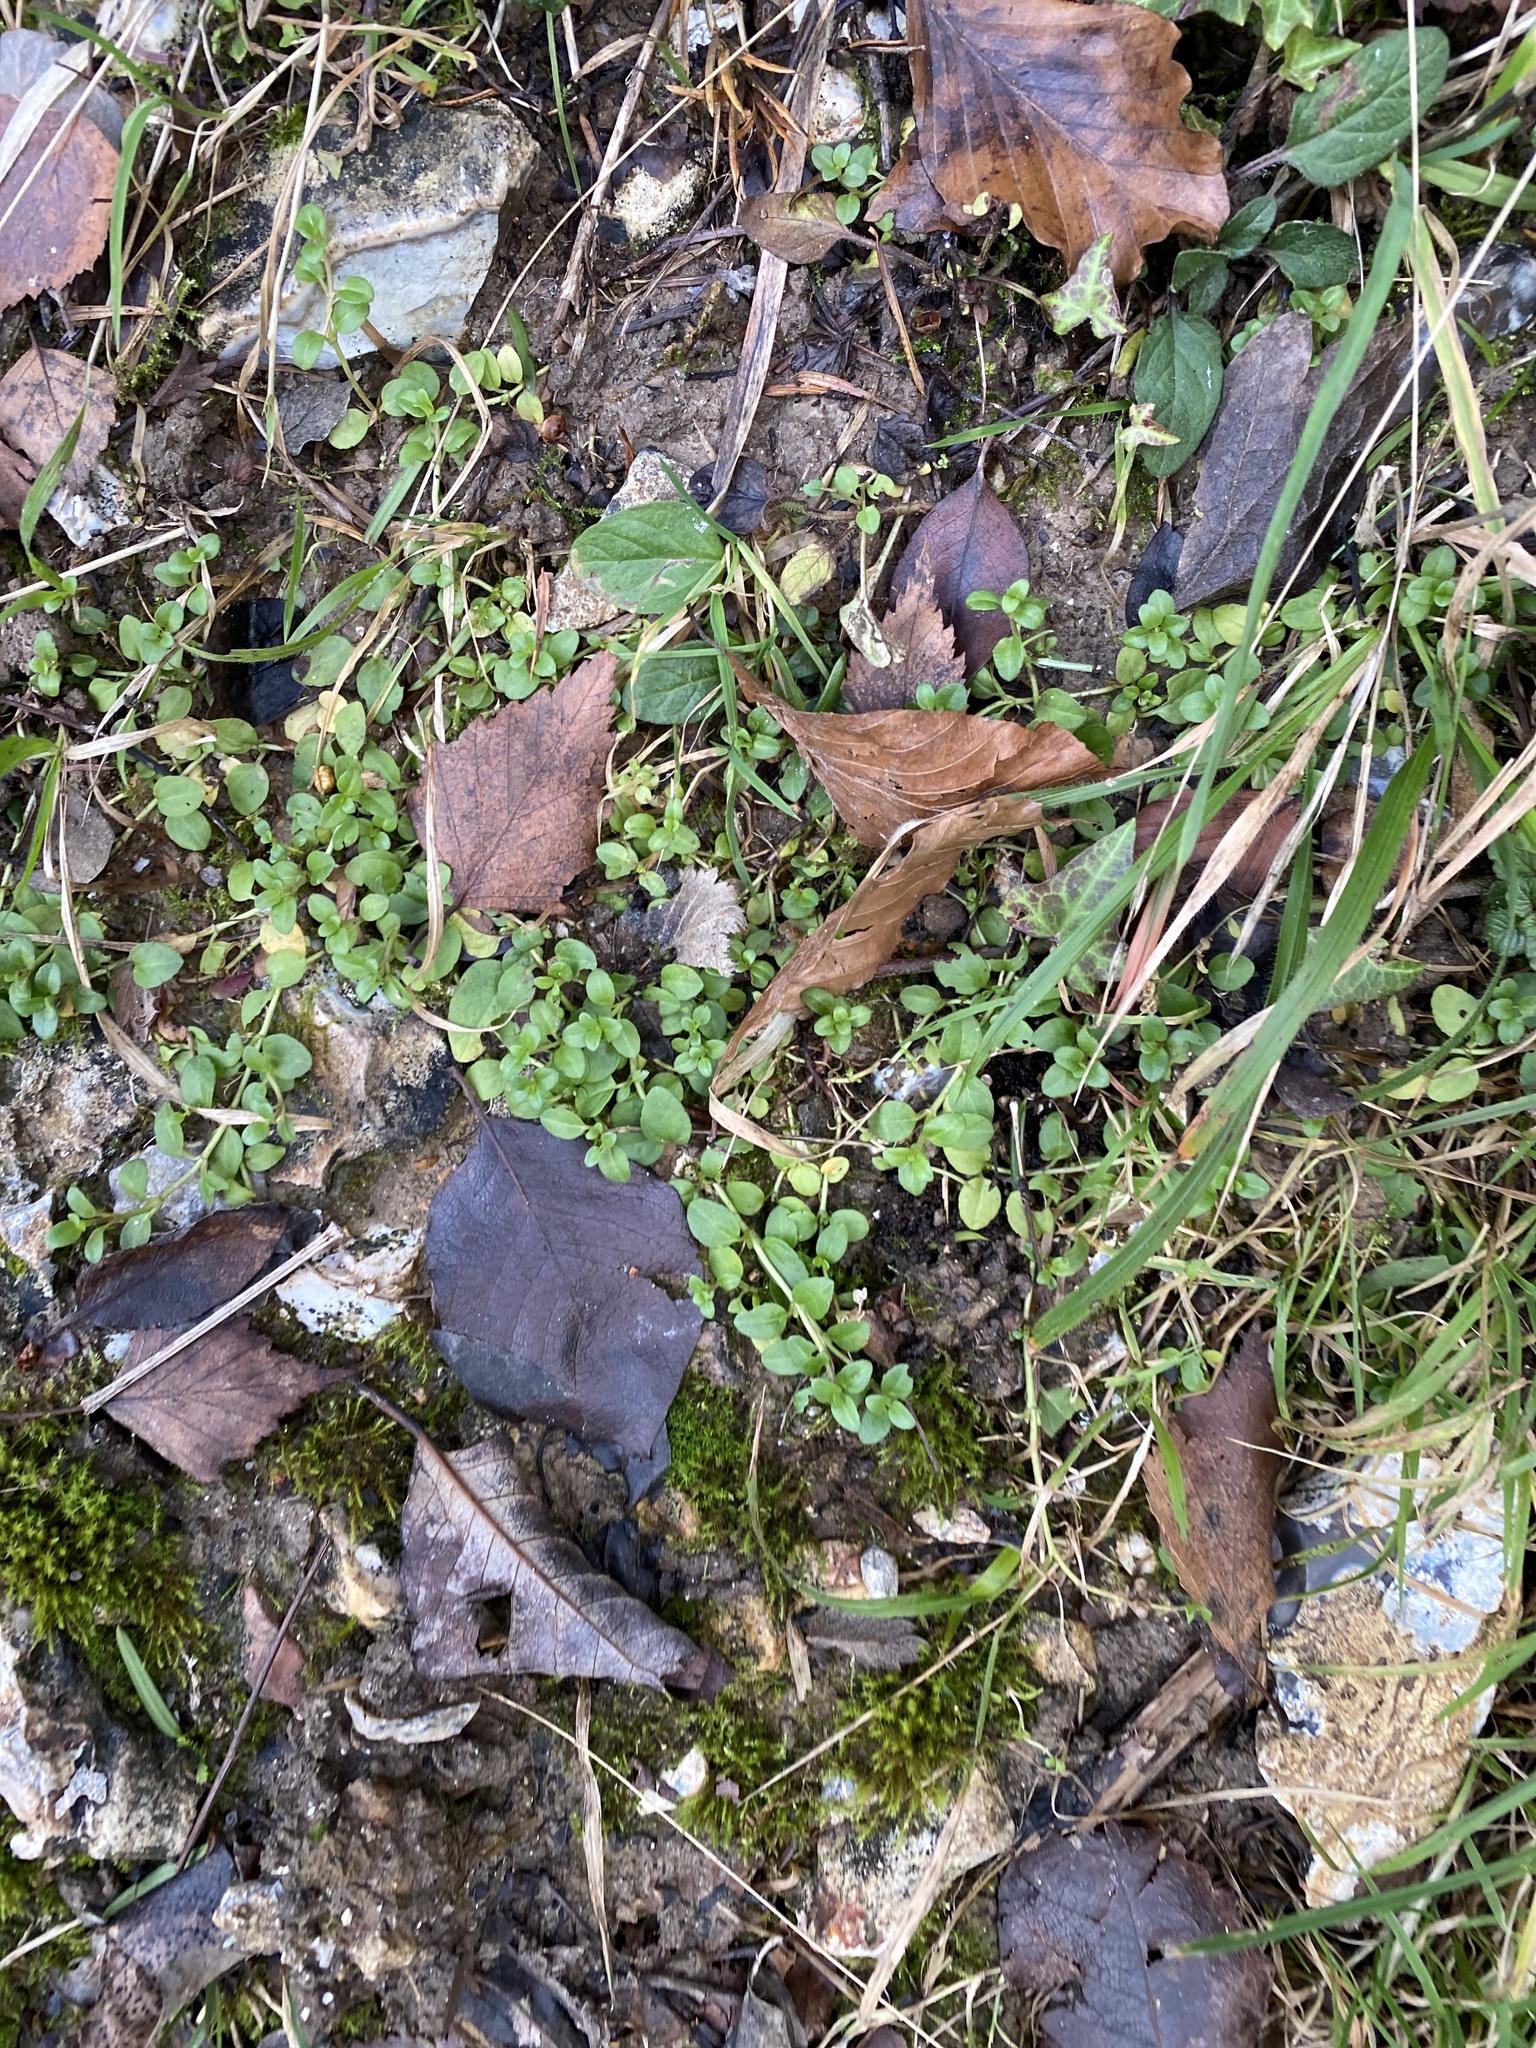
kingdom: Plantae
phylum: Tracheophyta
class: Magnoliopsida
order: Lamiales
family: Plantaginaceae
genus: Veronica
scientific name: Veronica serpyllifolia
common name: Thyme-leaved speedwell
